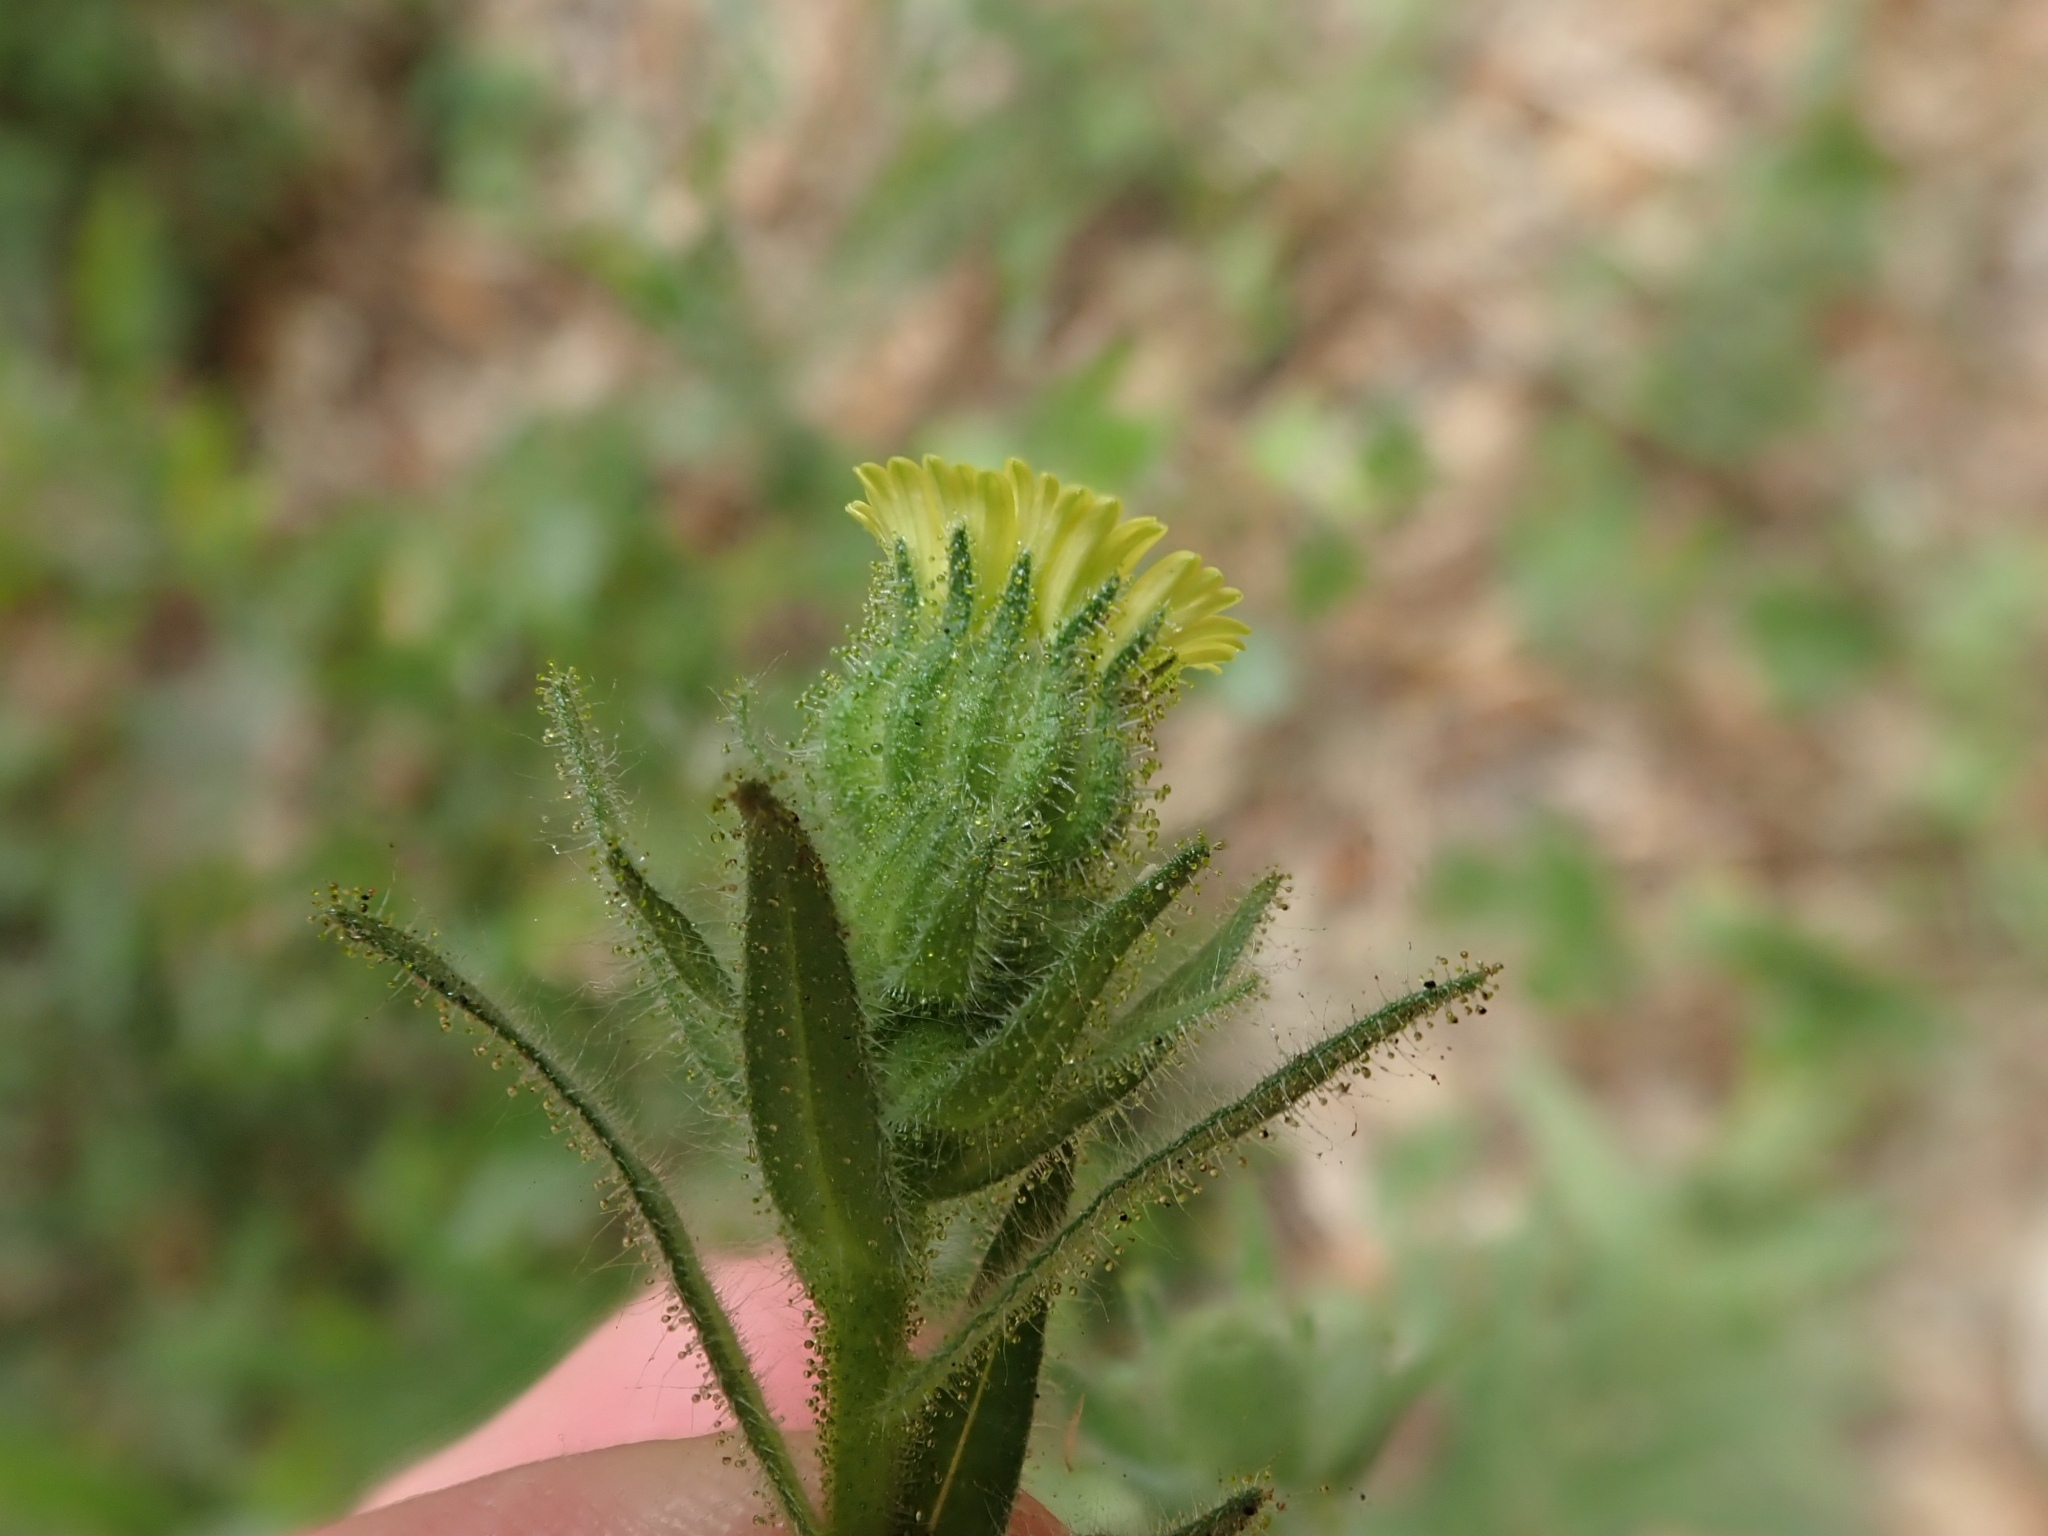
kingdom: Plantae
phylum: Tracheophyta
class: Magnoliopsida
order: Asterales
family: Asteraceae
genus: Madia
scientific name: Madia sativa
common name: Coast tarweed
